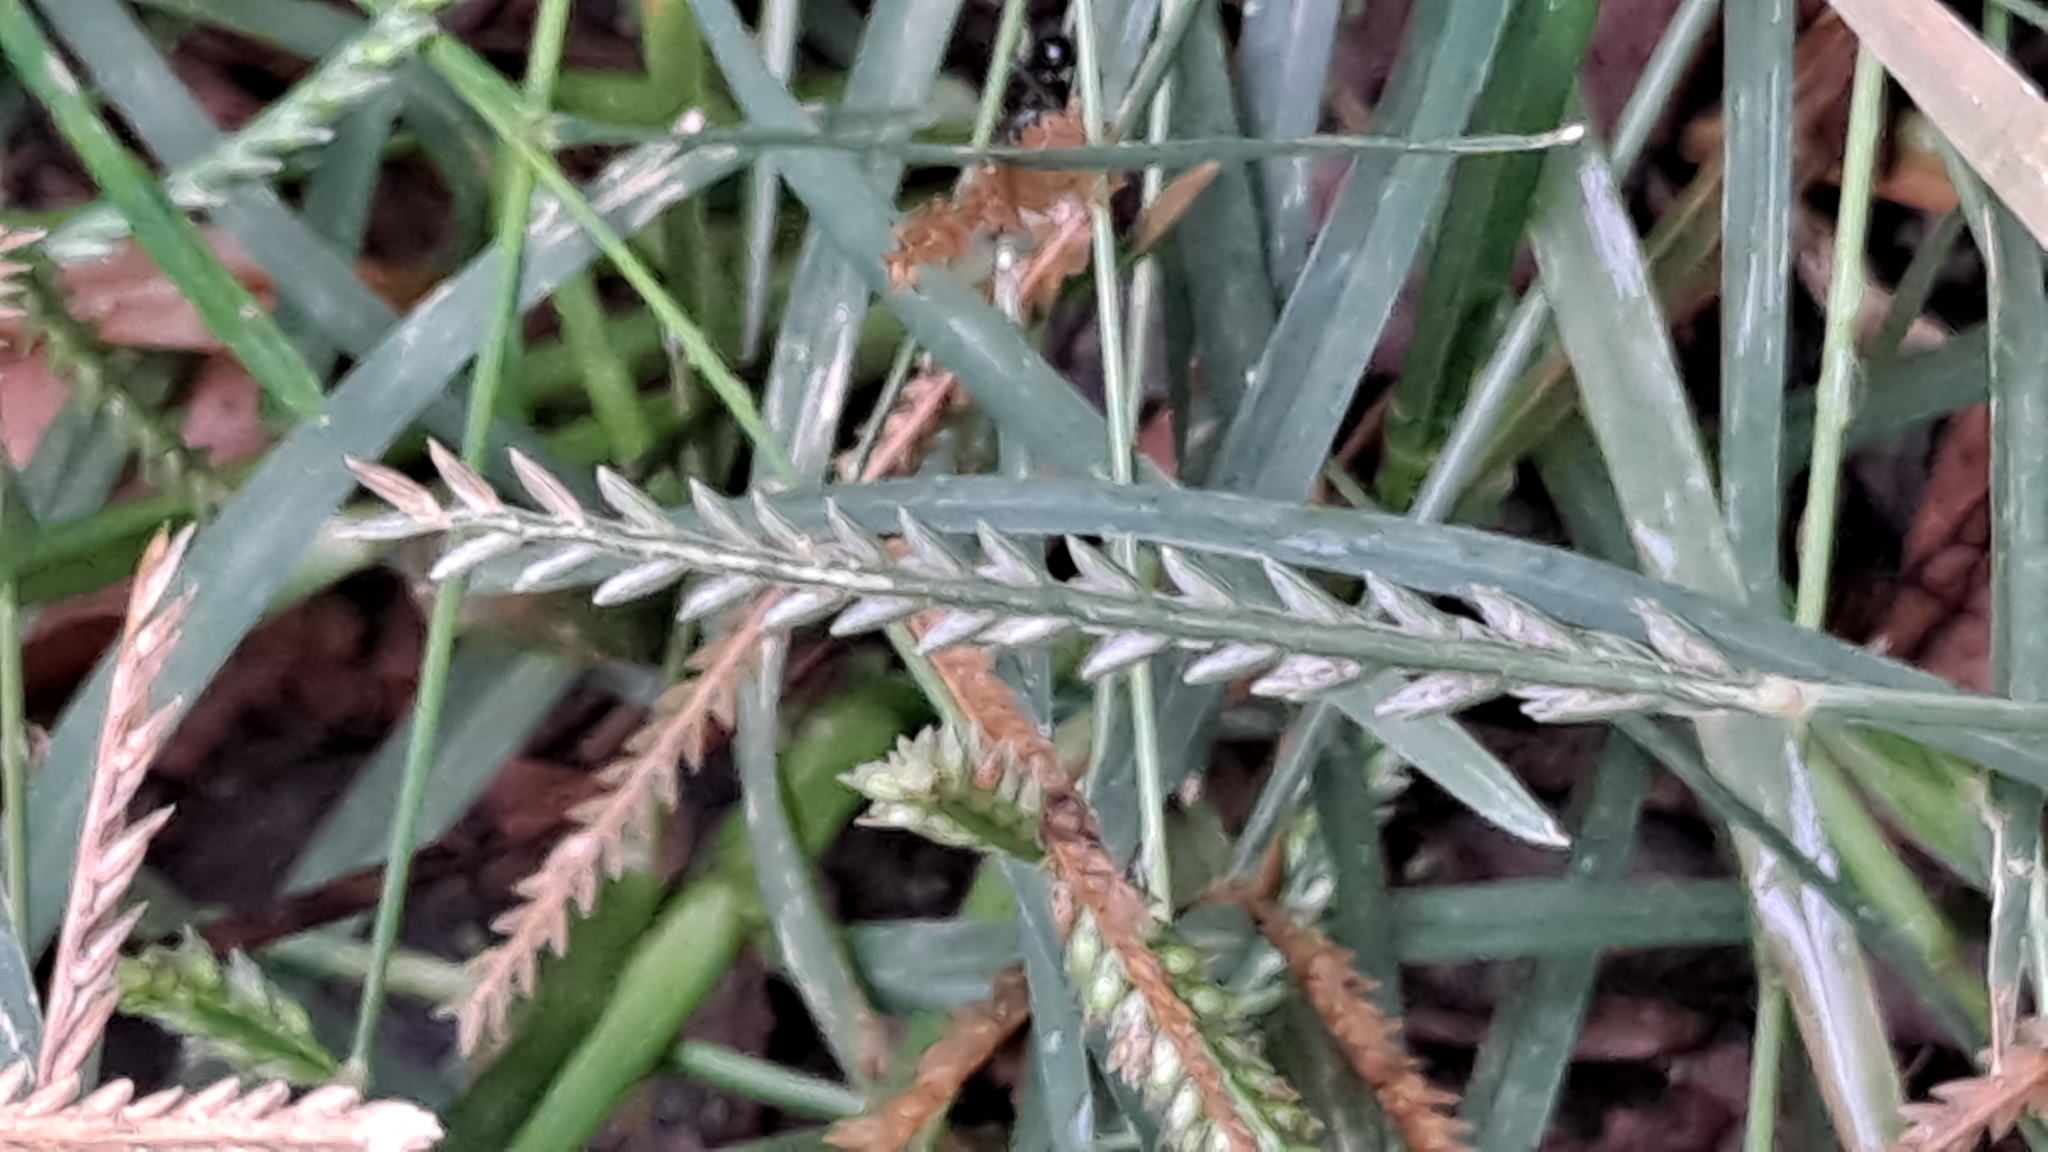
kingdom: Plantae
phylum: Tracheophyta
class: Liliopsida
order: Poales
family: Poaceae
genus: Eleusine
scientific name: Eleusine indica
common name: Yard-grass
